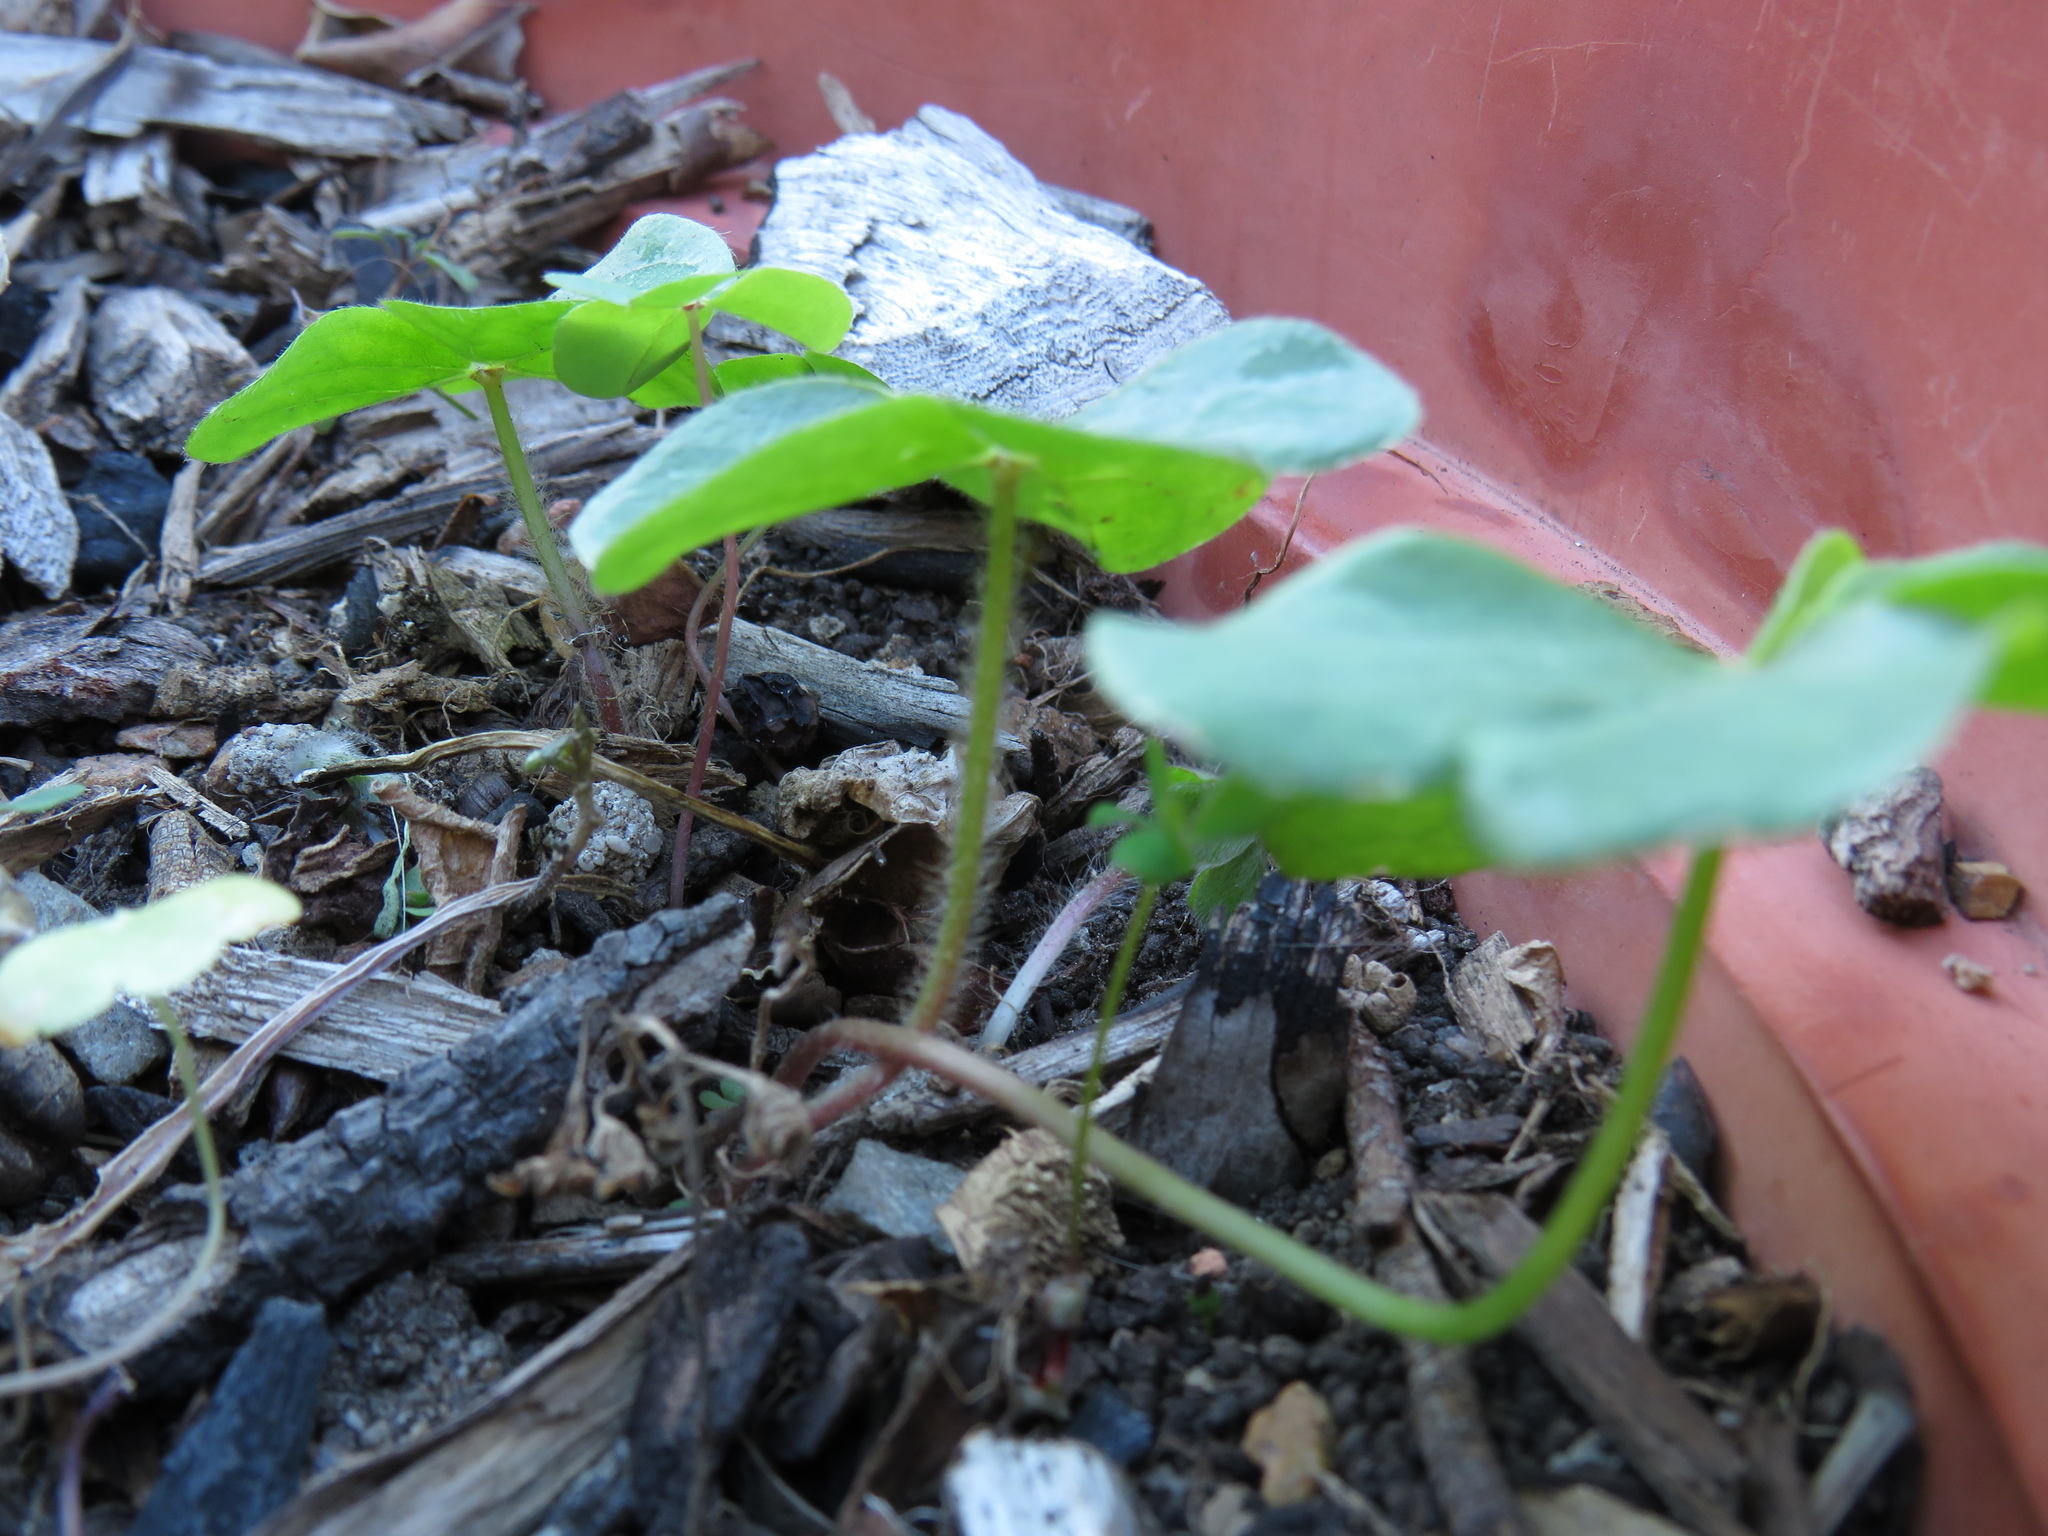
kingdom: Plantae
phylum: Tracheophyta
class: Magnoliopsida
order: Oxalidales
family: Oxalidaceae
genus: Oxalis
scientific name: Oxalis debilis
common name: Large-flowered pink-sorrel
